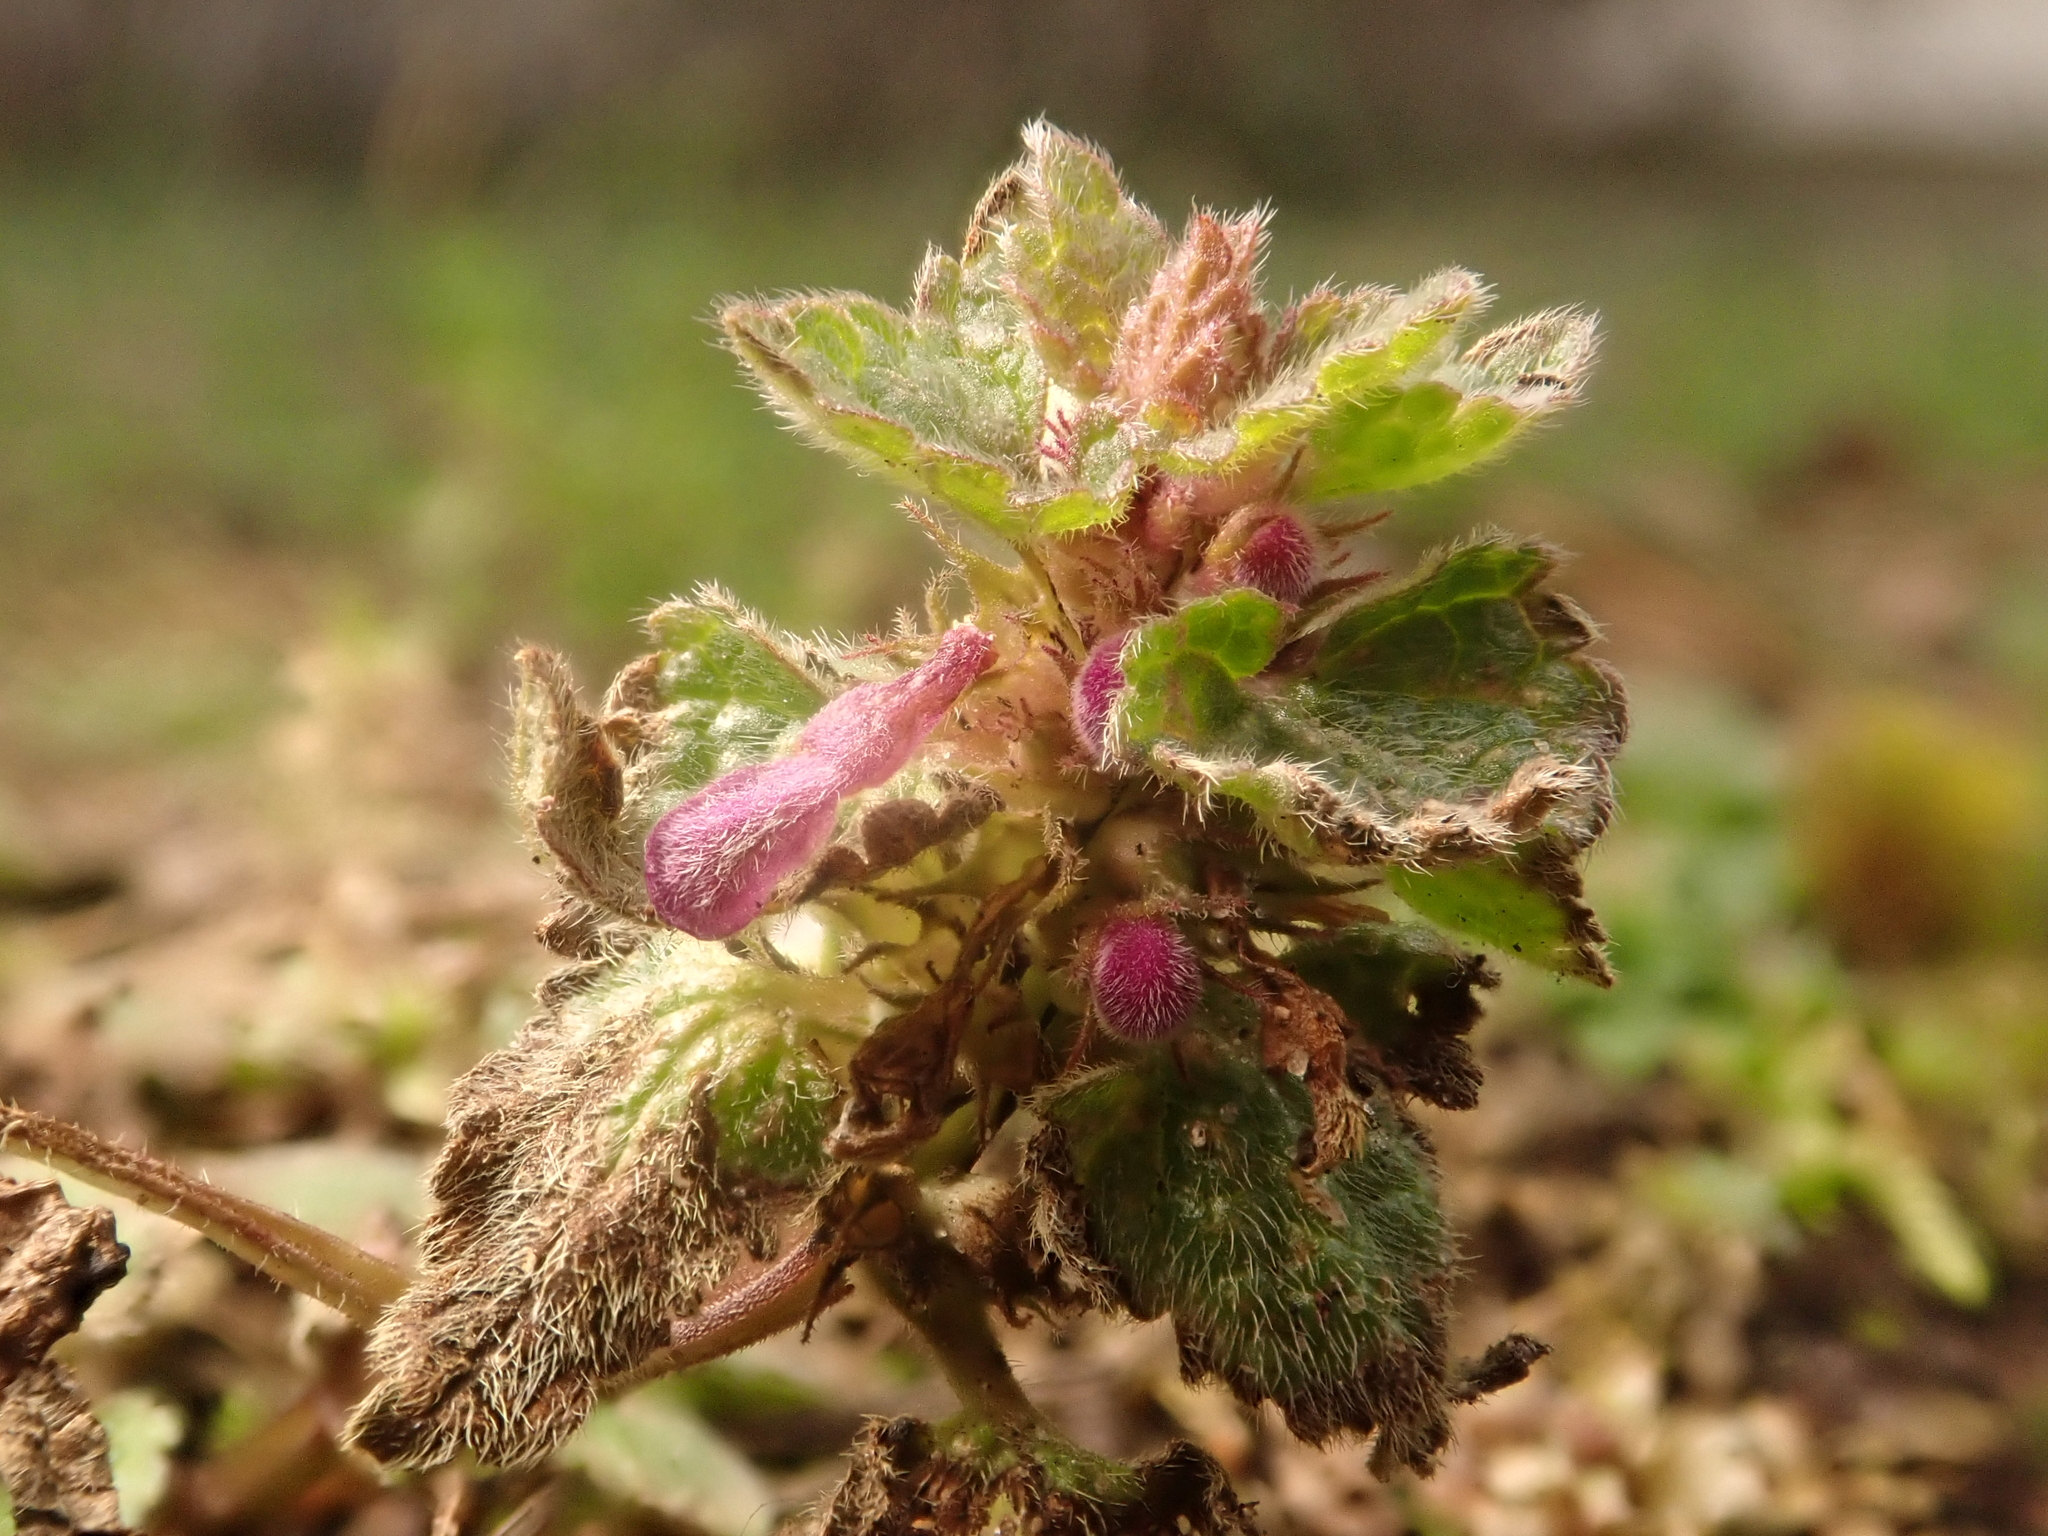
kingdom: Plantae
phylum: Tracheophyta
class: Magnoliopsida
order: Lamiales
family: Lamiaceae
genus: Lamium
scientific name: Lamium purpureum
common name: Red dead-nettle
